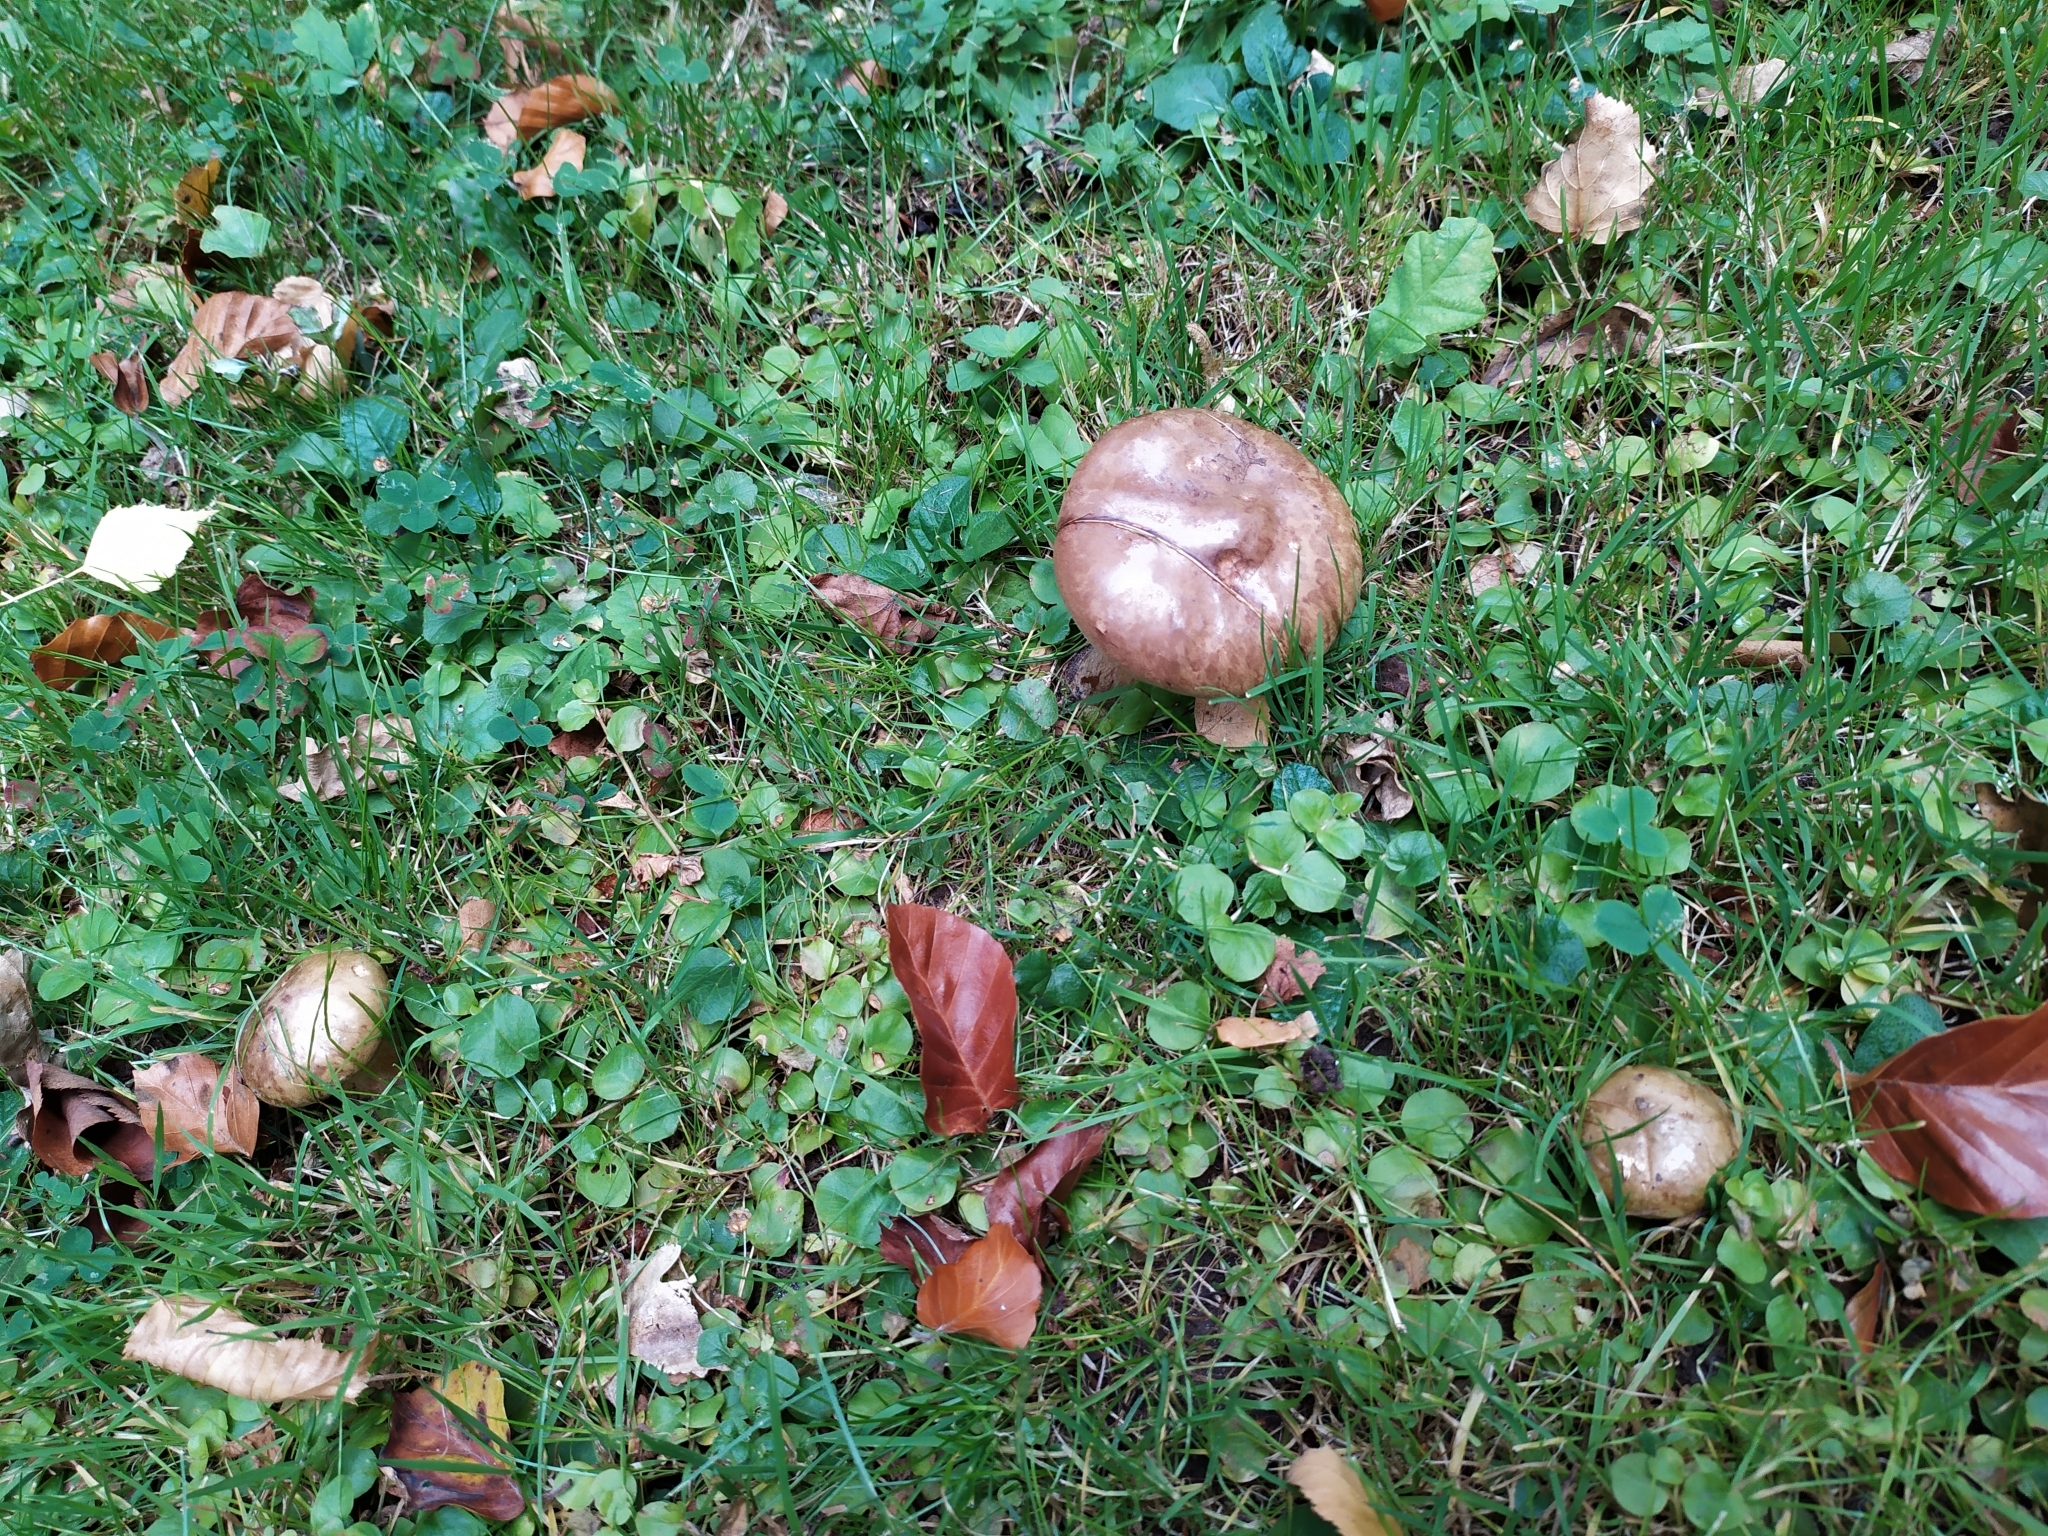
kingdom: Fungi
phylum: Basidiomycota
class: Agaricomycetes
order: Boletales
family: Paxillaceae
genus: Paxillus
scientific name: Paxillus involutus
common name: Brown roll rim
